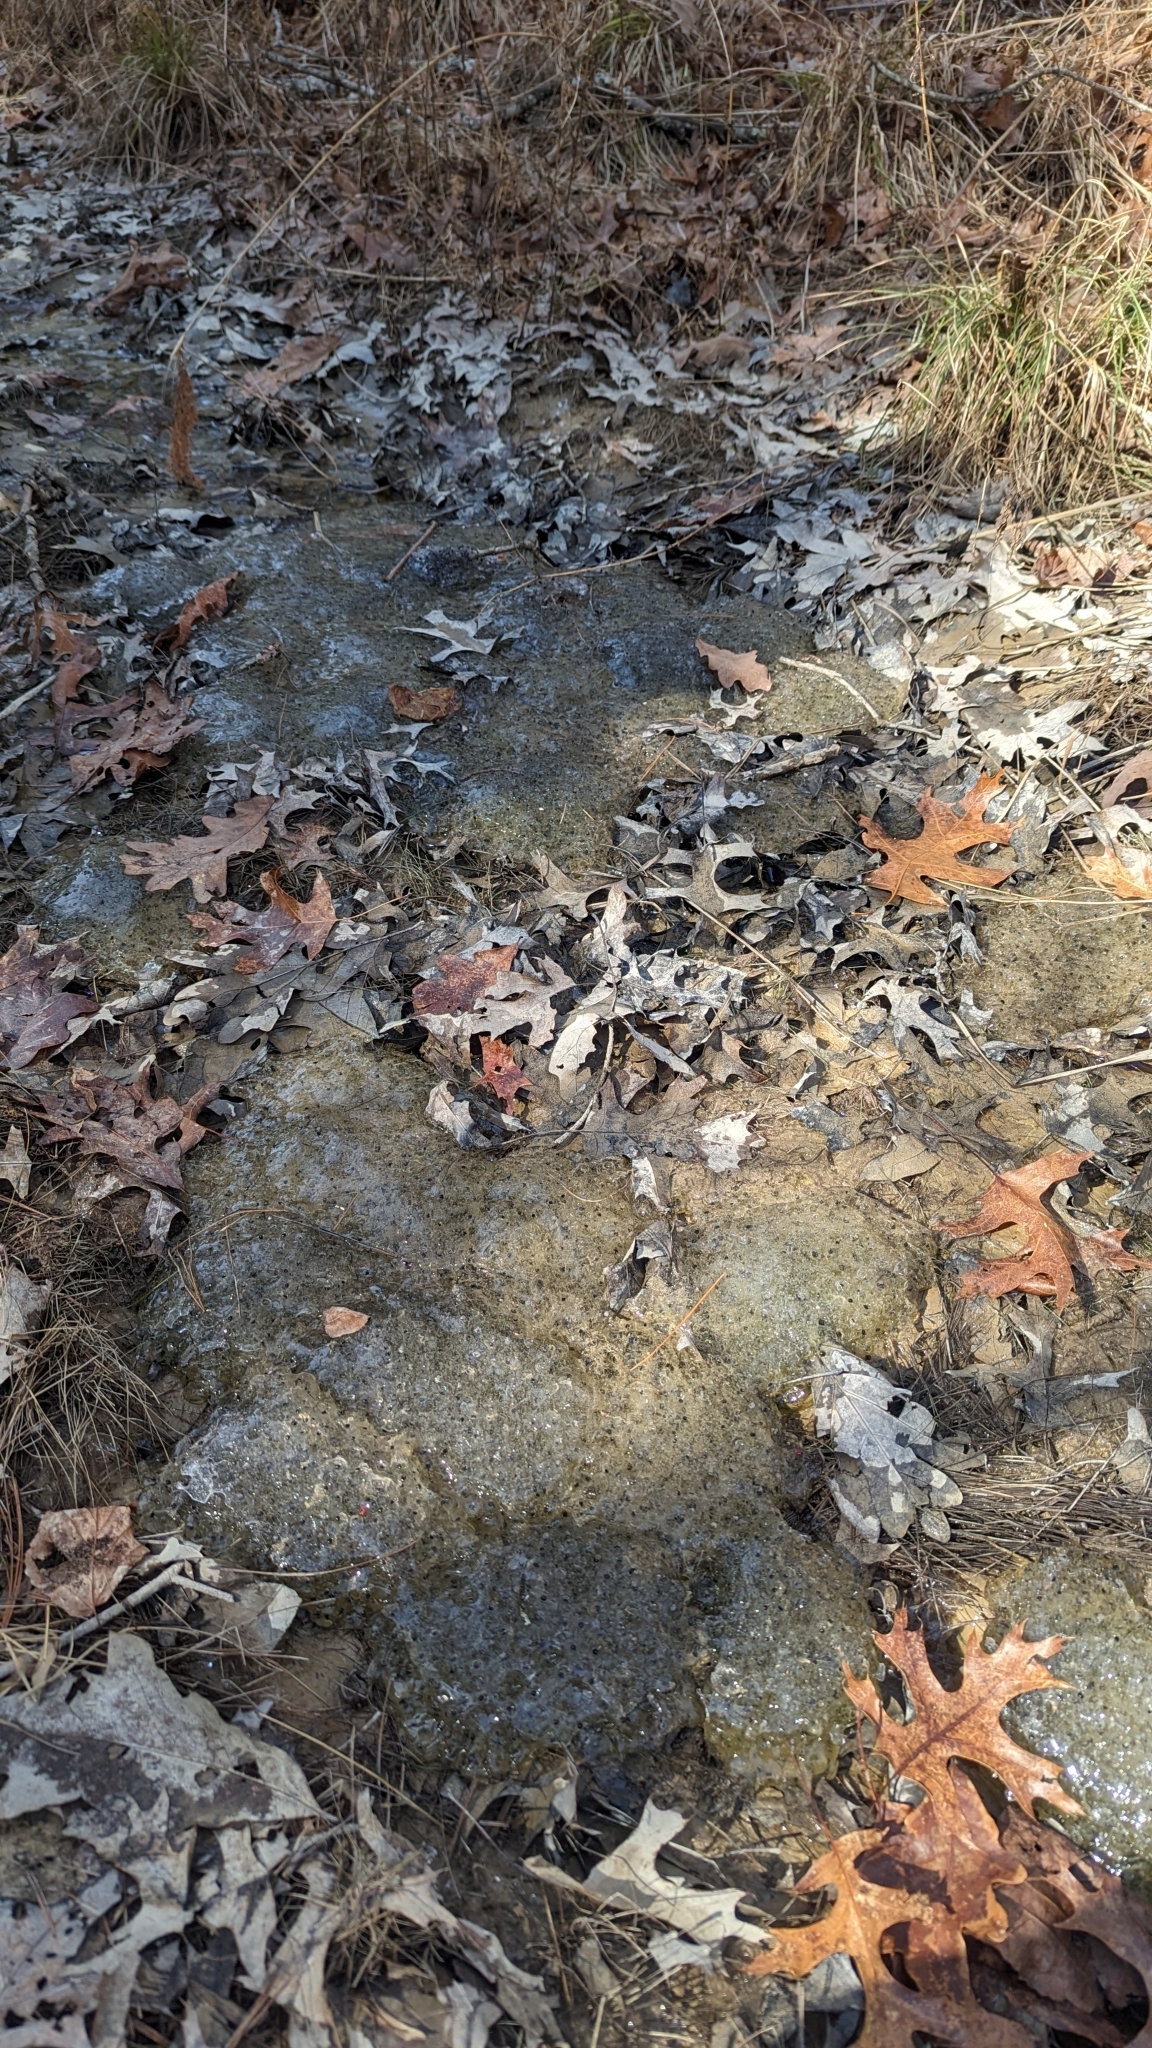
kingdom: Animalia
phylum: Chordata
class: Amphibia
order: Anura
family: Ranidae
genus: Lithobates
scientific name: Lithobates sylvaticus
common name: Wood frog
